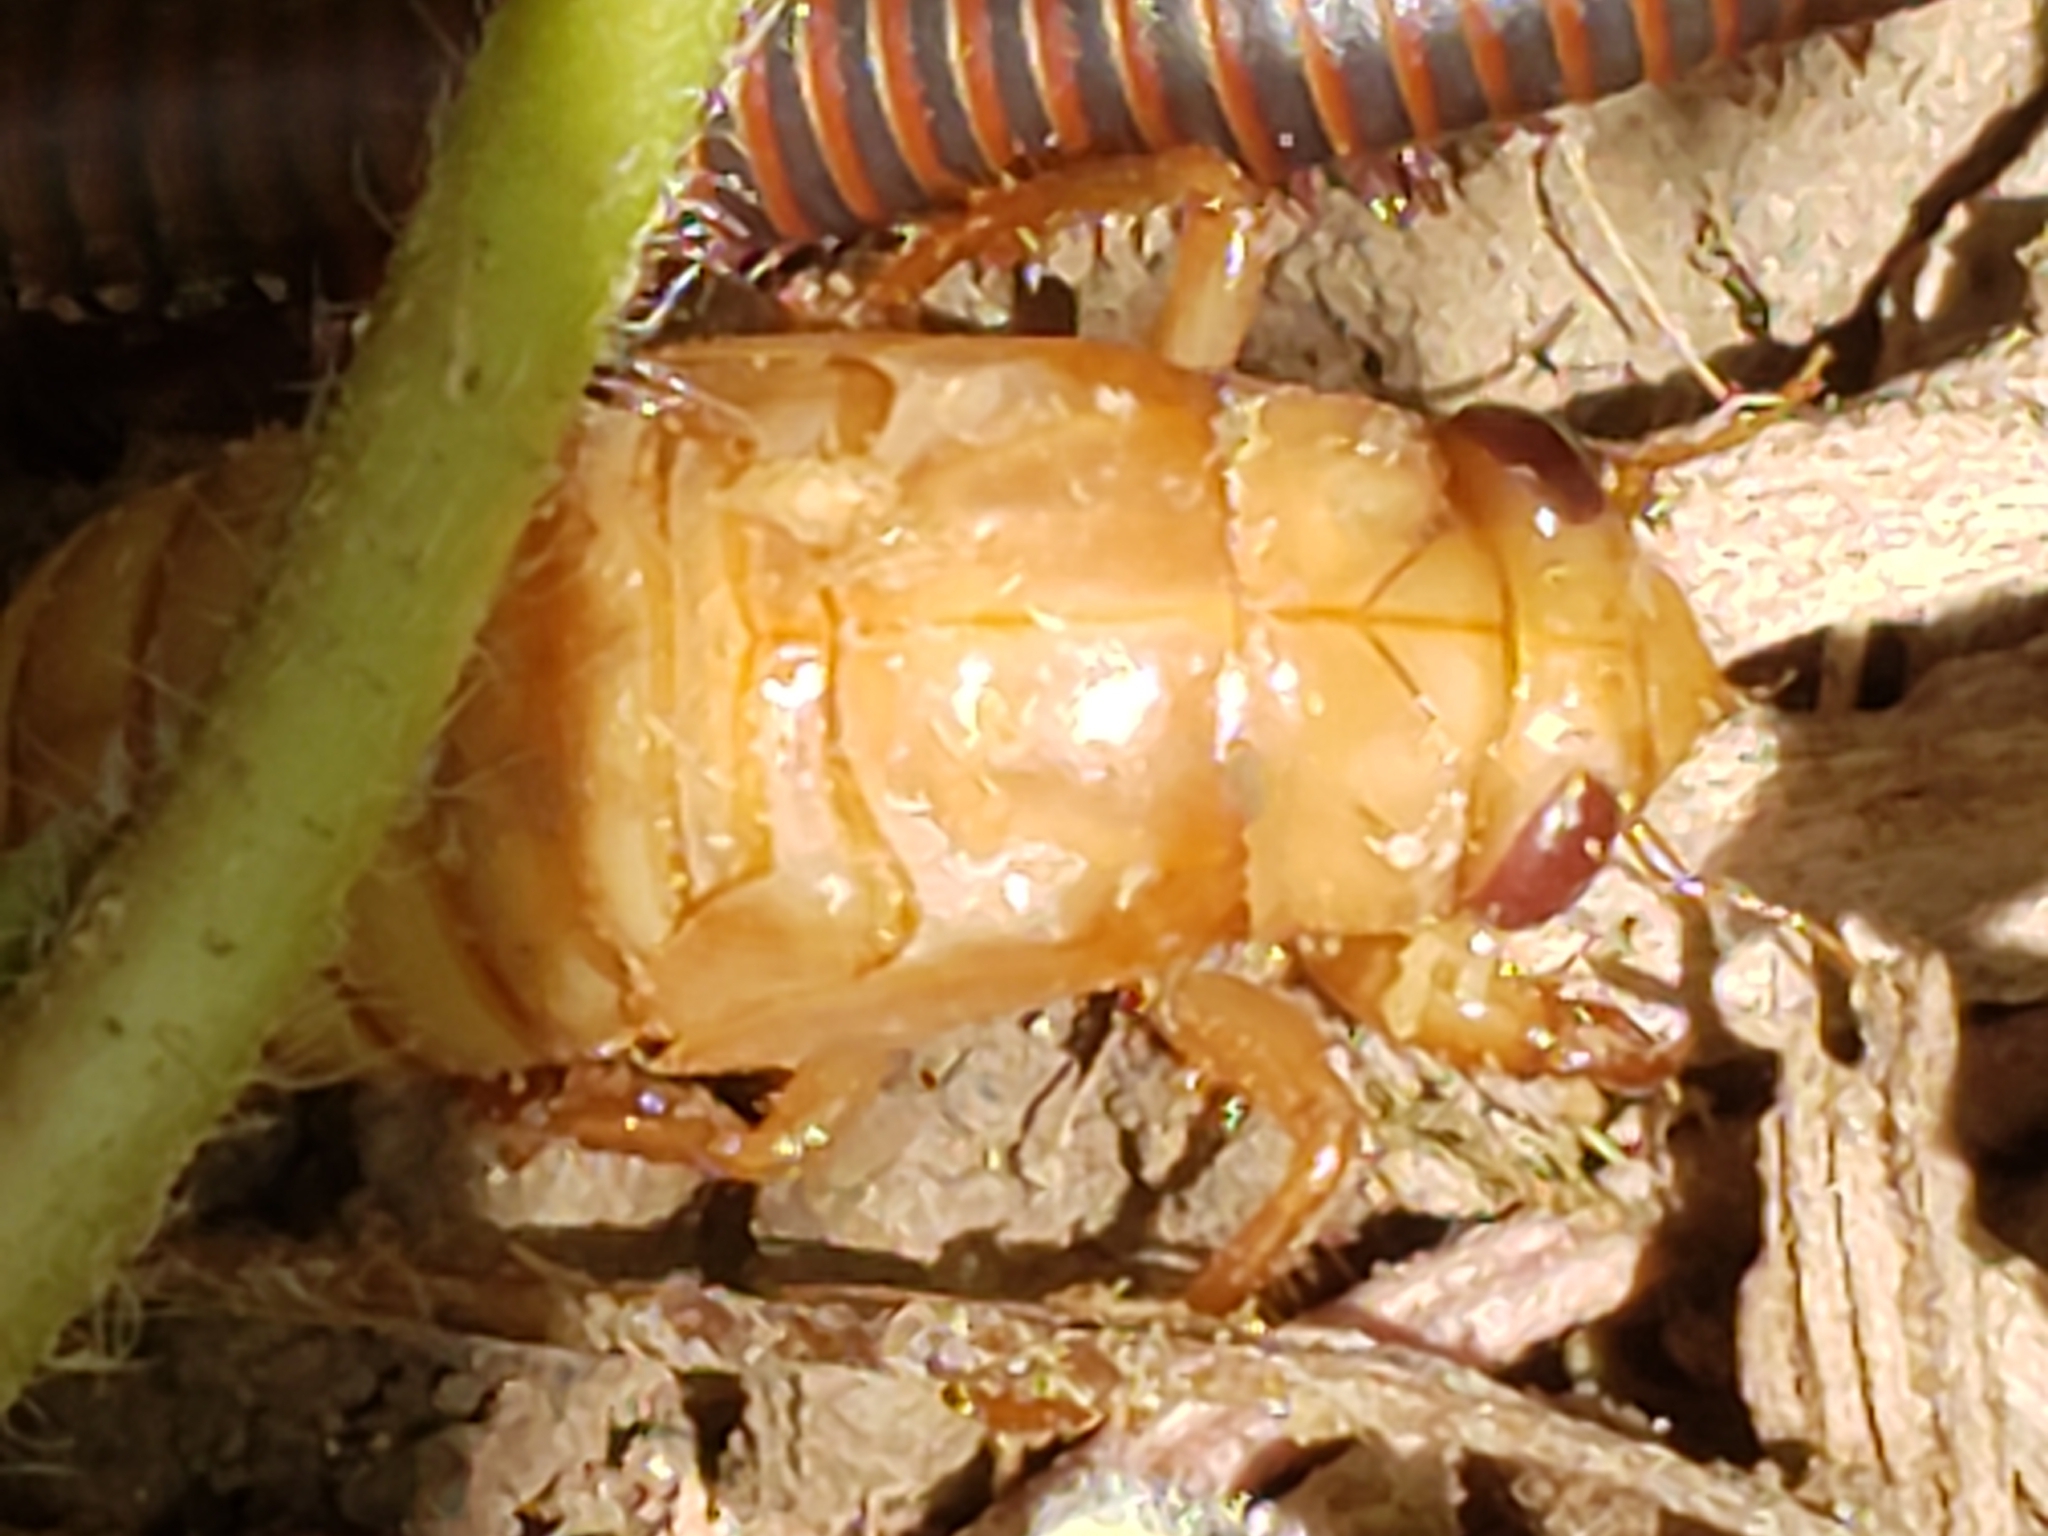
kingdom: Animalia
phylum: Arthropoda
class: Insecta
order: Hemiptera
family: Cicadidae
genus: Magicicada
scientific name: Magicicada
